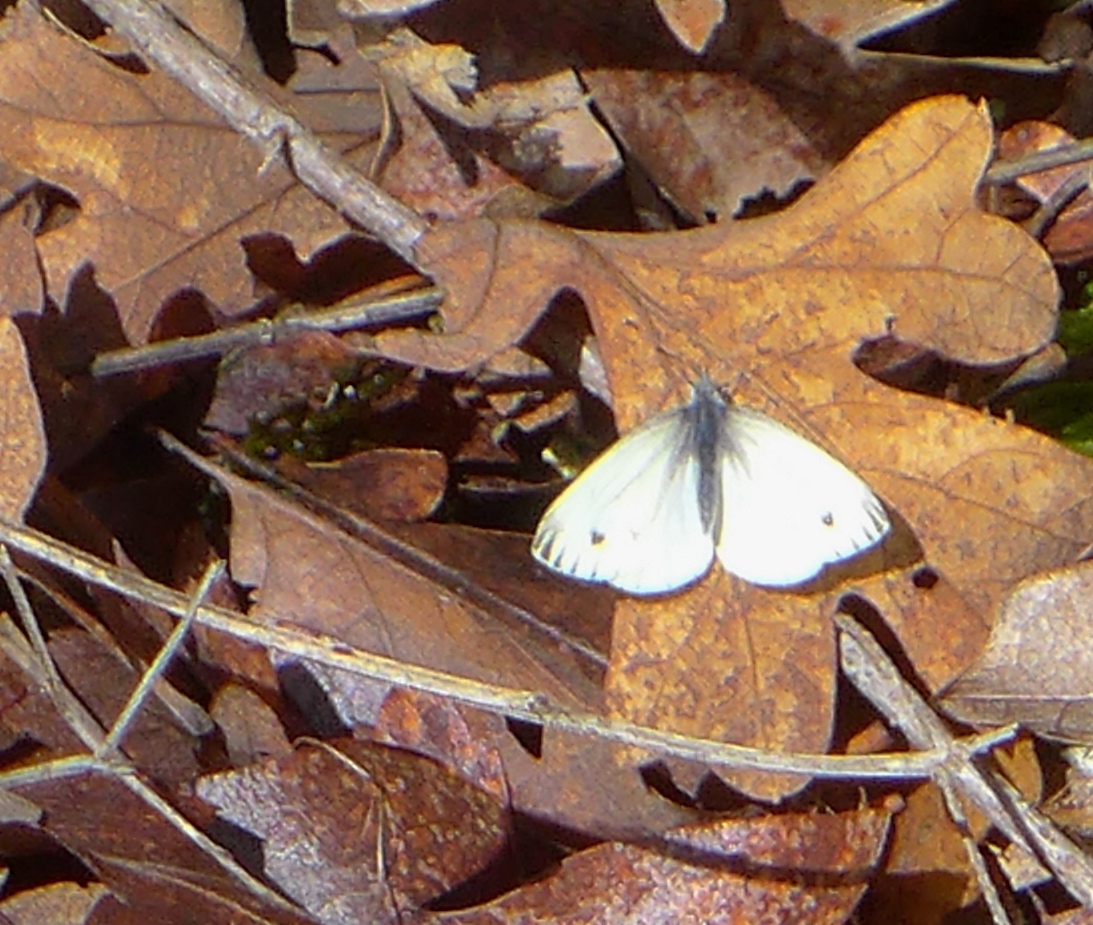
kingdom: Animalia
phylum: Arthropoda
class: Insecta
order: Lepidoptera
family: Pieridae
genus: Pieris
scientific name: Pieris marginalis
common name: Margined white
